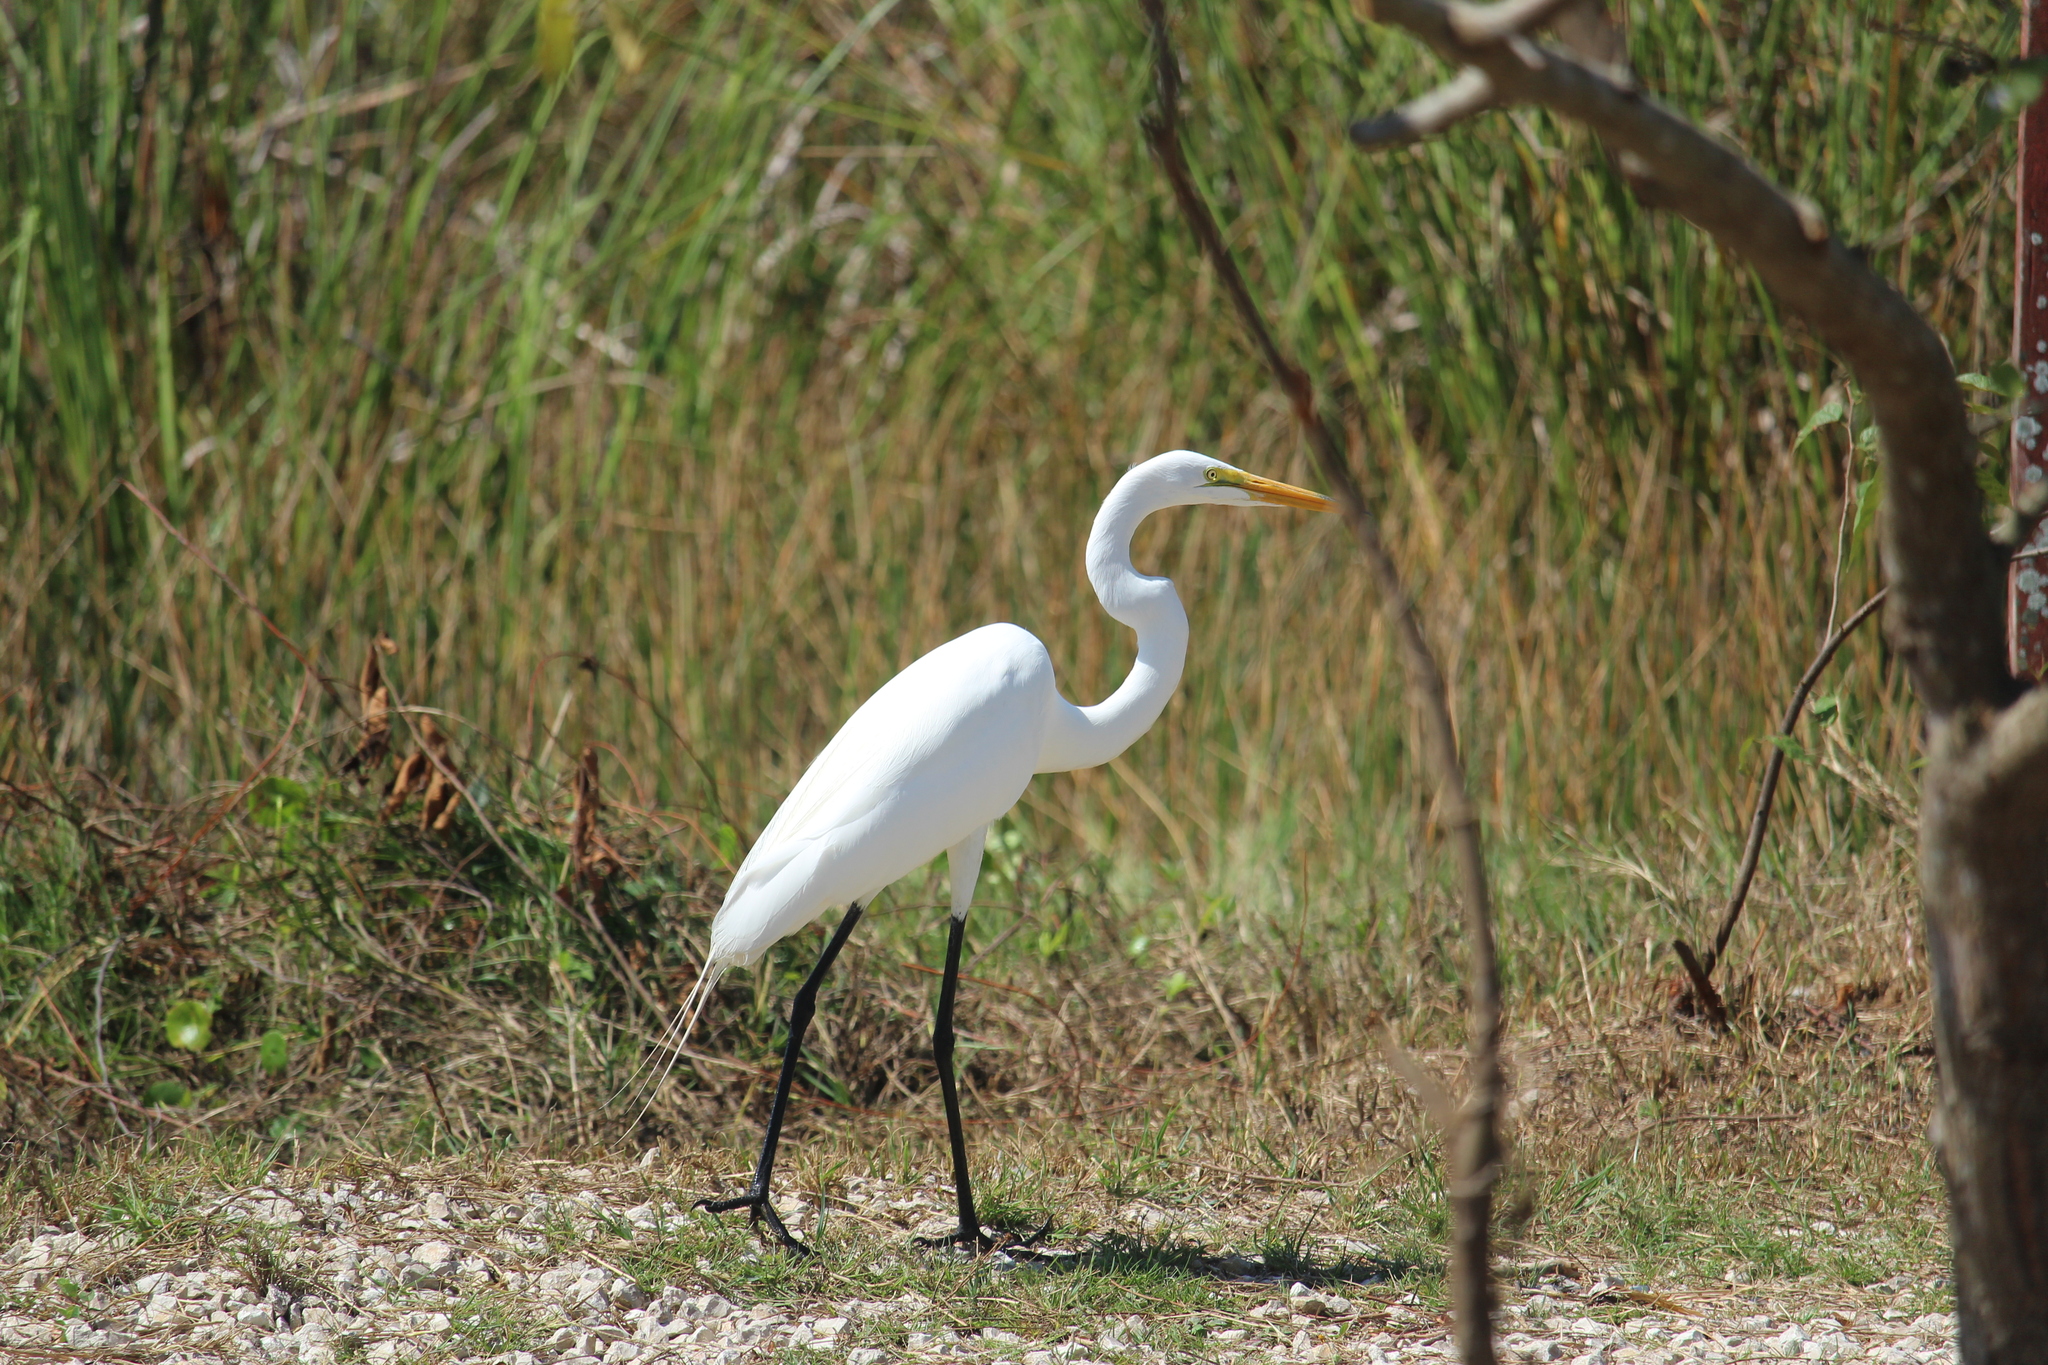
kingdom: Animalia
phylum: Chordata
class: Aves
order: Pelecaniformes
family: Ardeidae
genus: Ardea
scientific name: Ardea alba
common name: Great egret
